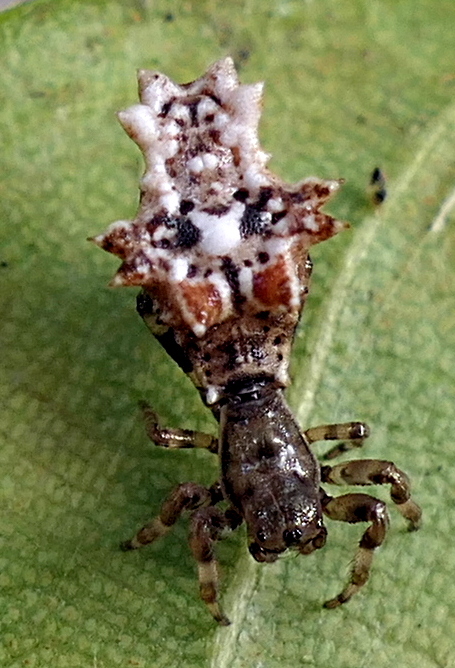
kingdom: Animalia
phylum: Arthropoda
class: Arachnida
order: Araneae
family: Araneidae
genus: Micrathena
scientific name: Micrathena horrida
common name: Orb weavers
